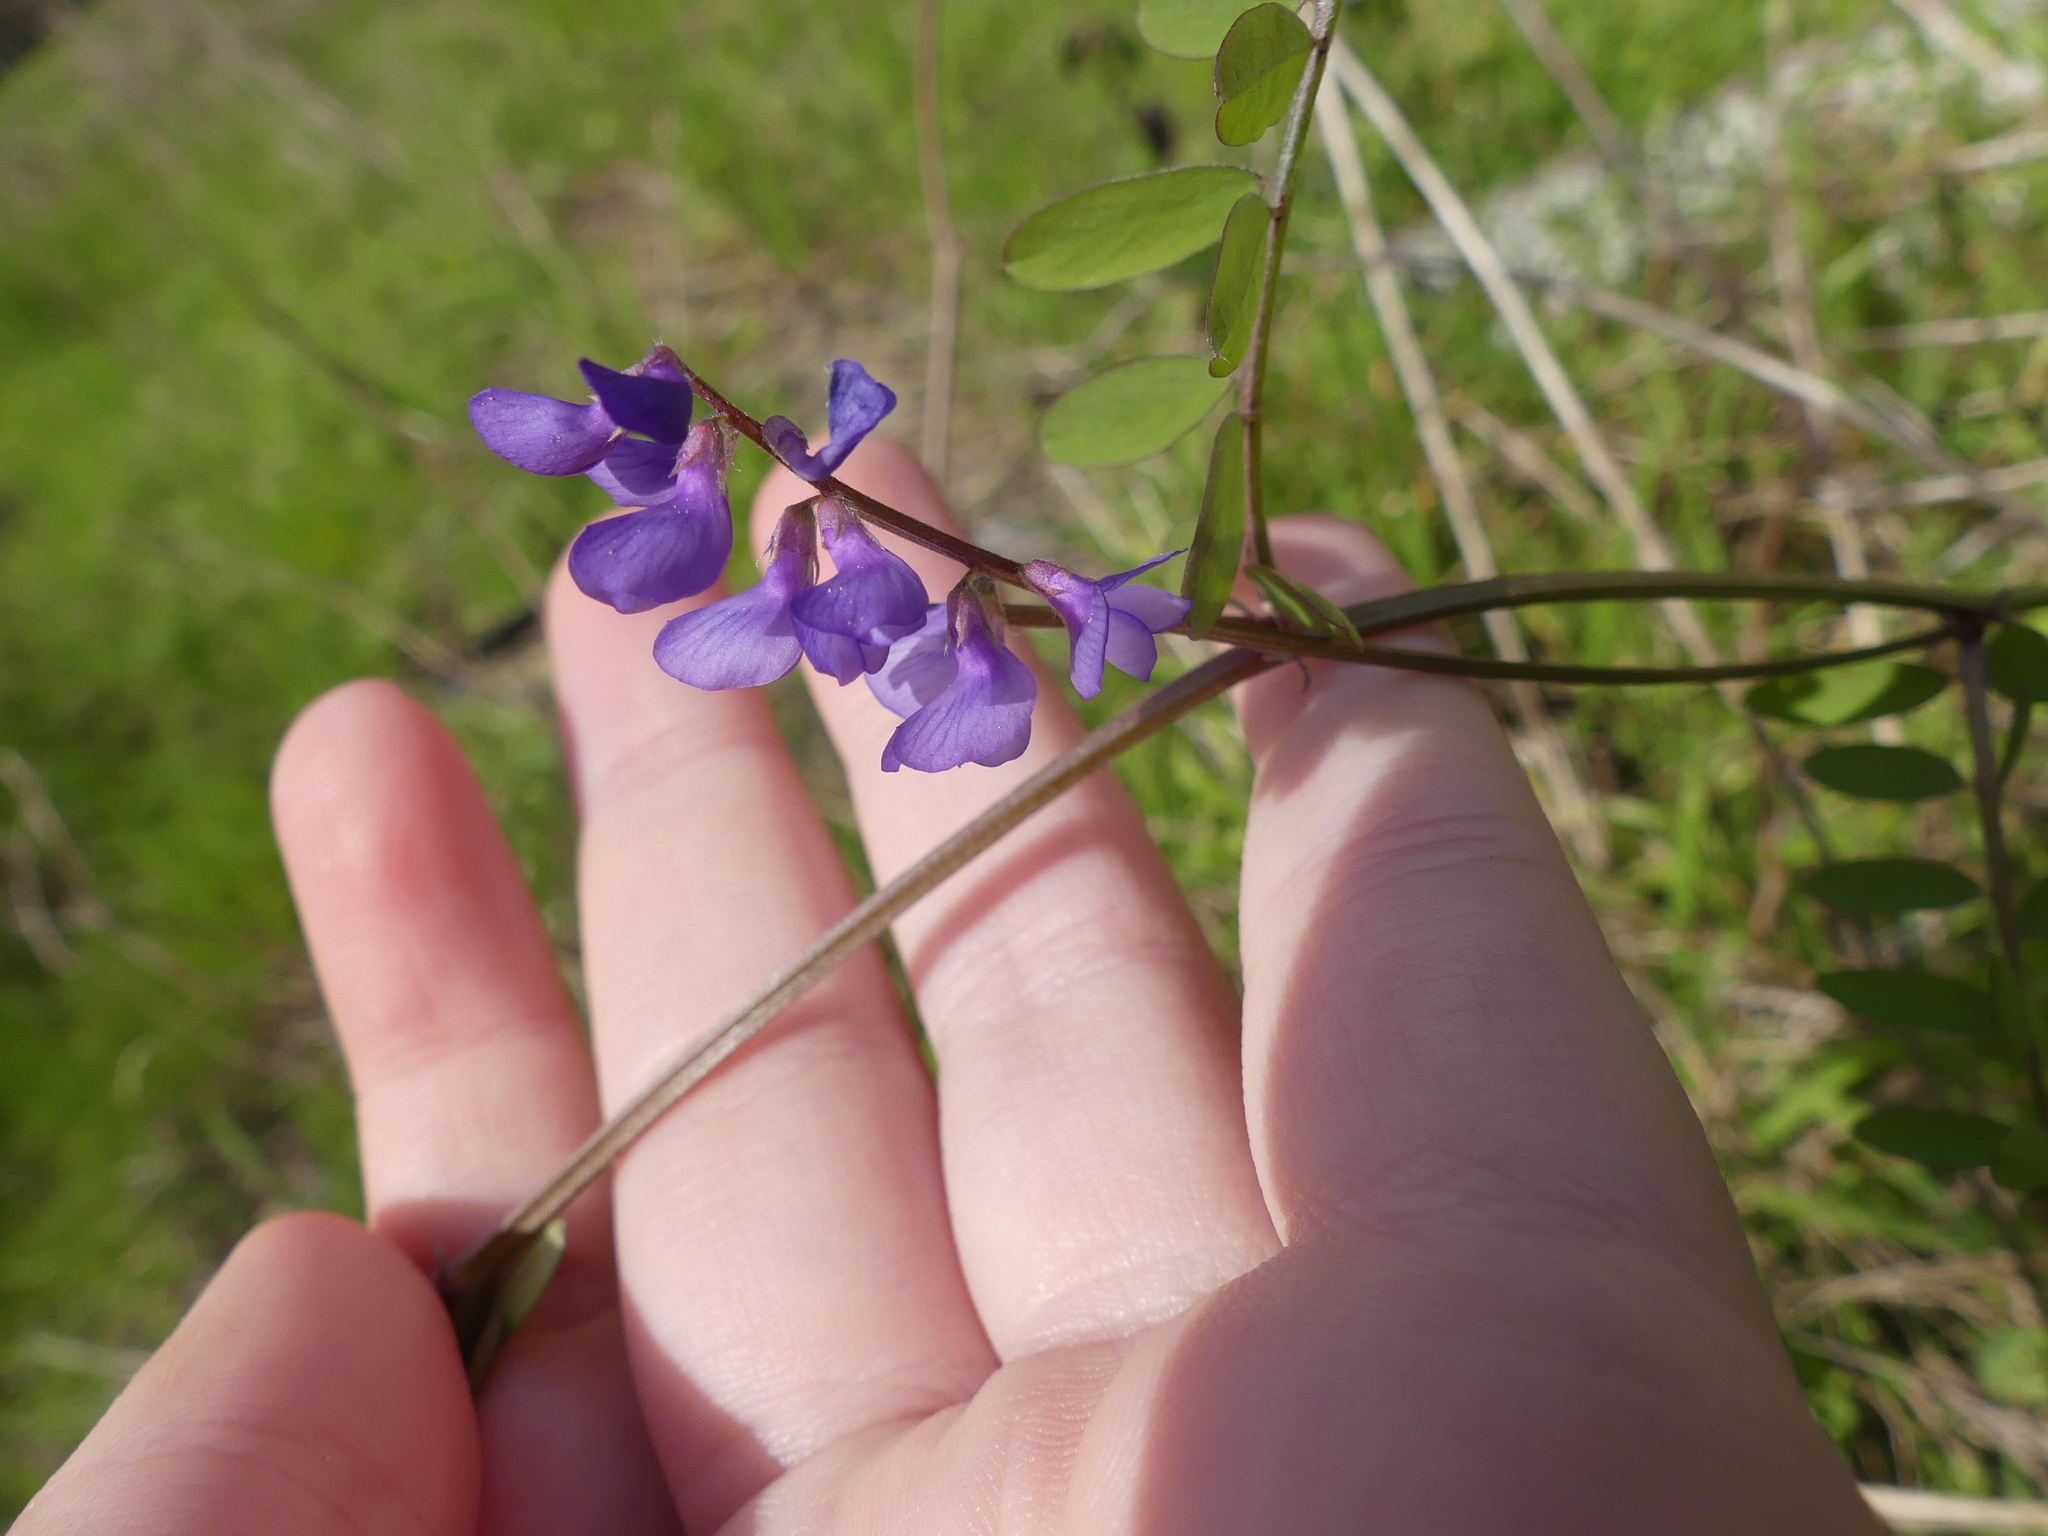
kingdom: Plantae
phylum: Tracheophyta
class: Magnoliopsida
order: Fabales
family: Fabaceae
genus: Vicia
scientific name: Vicia ludoviciana
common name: Louisiana vetch
